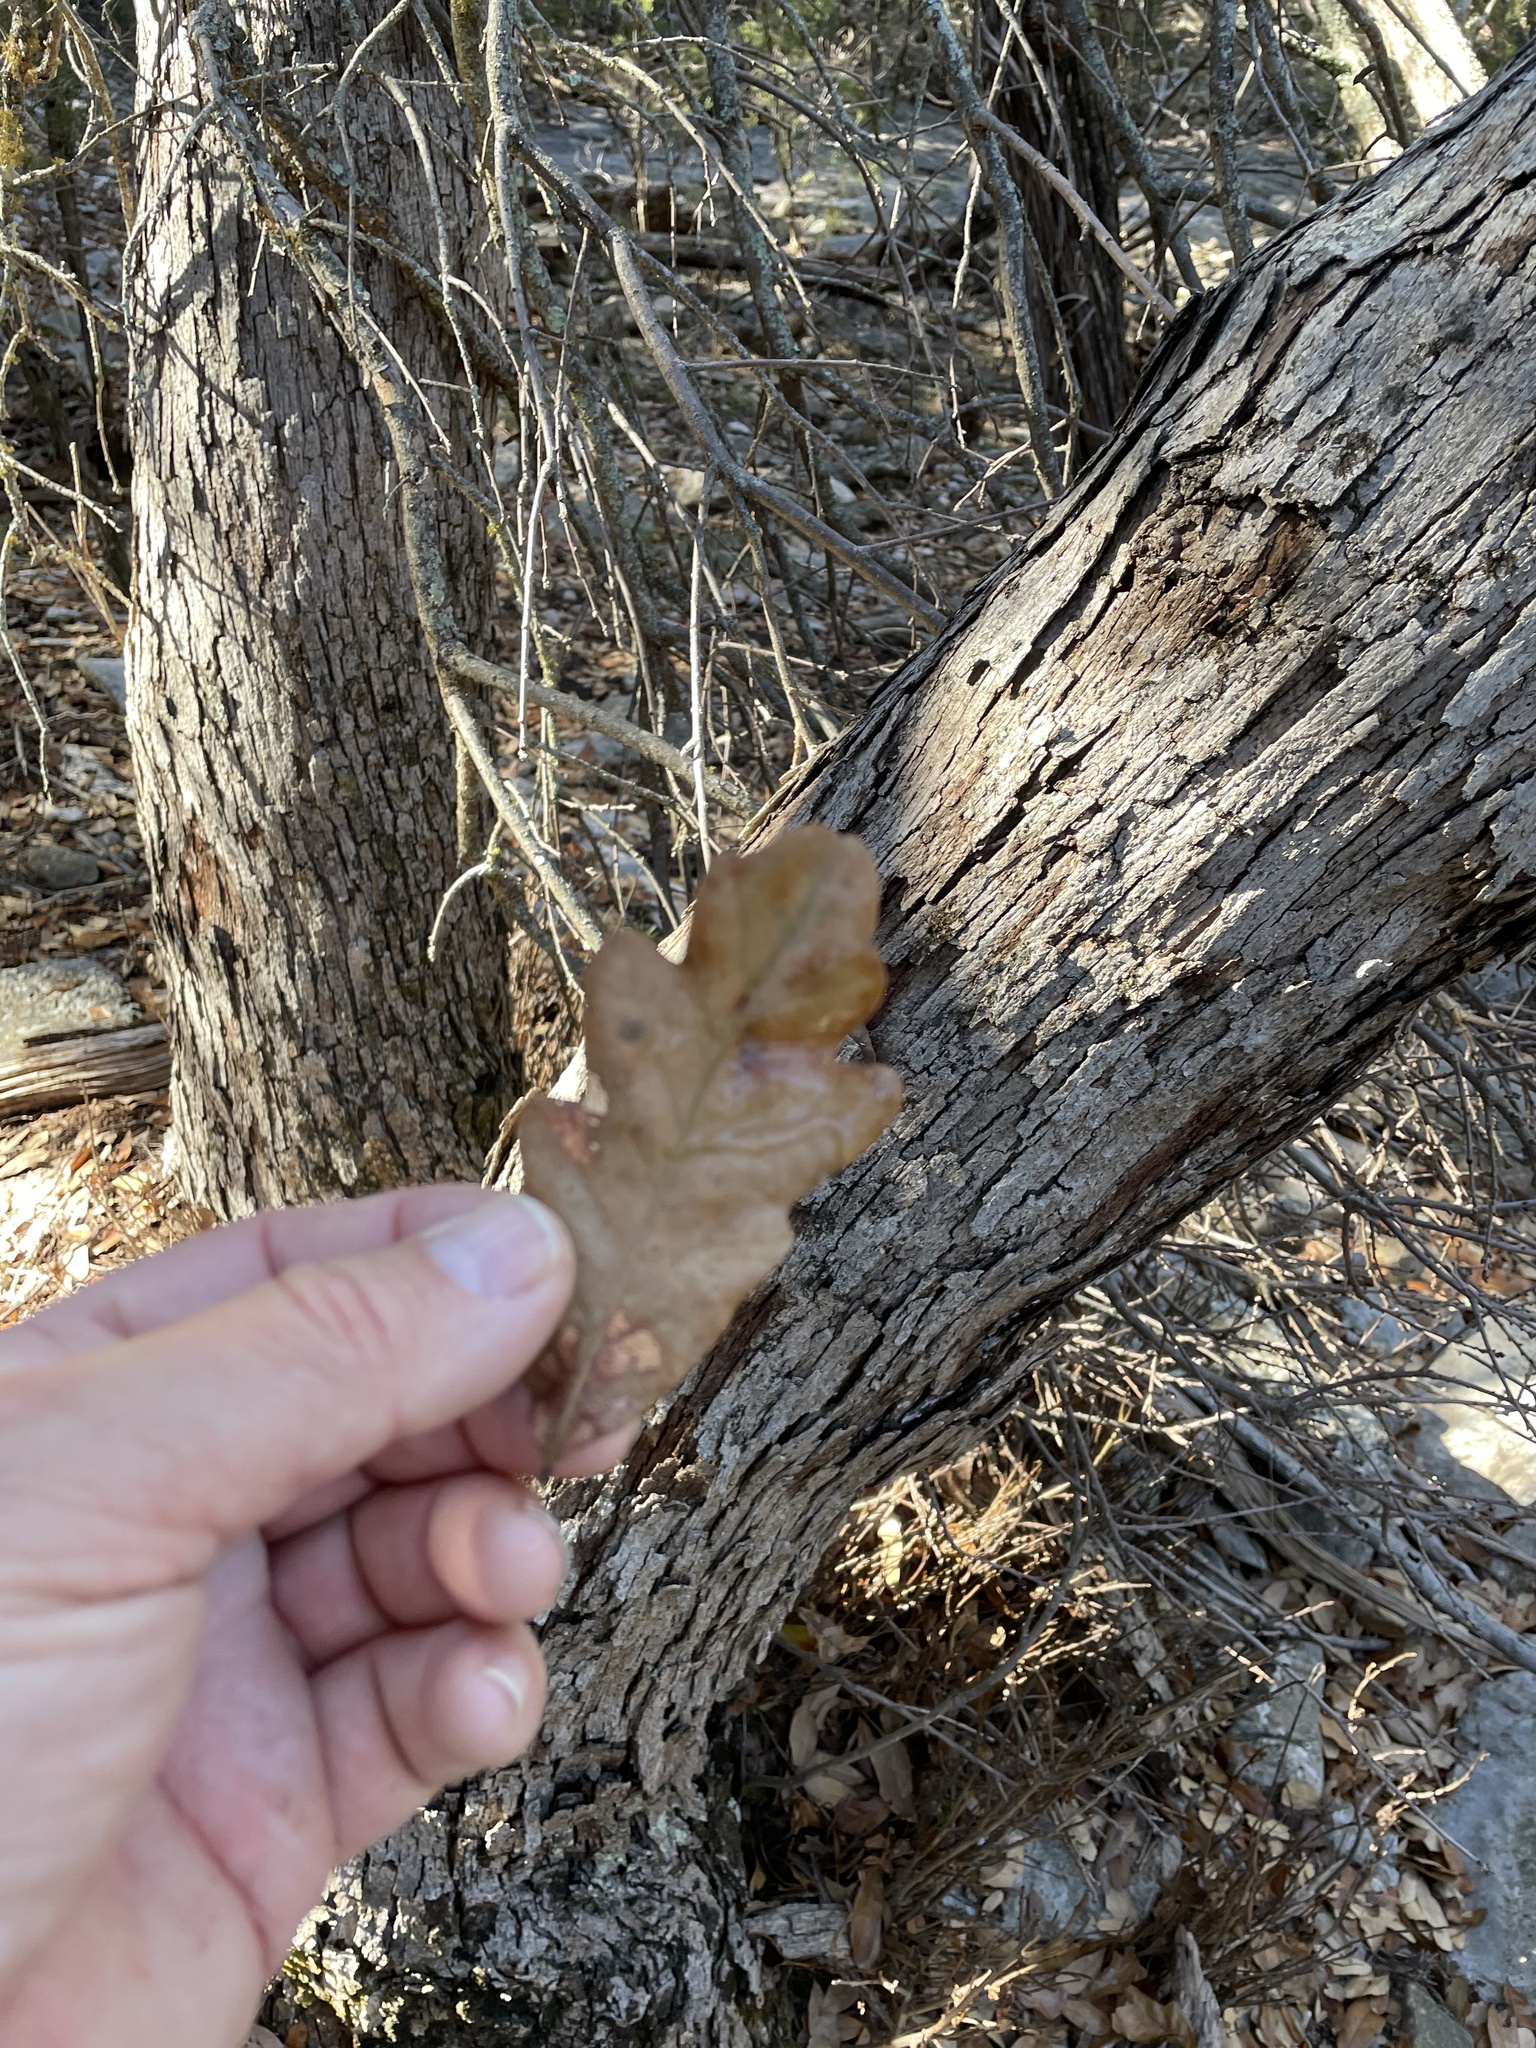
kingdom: Plantae
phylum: Tracheophyta
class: Magnoliopsida
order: Fagales
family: Fagaceae
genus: Quercus
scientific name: Quercus sinuata
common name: Durand oak
